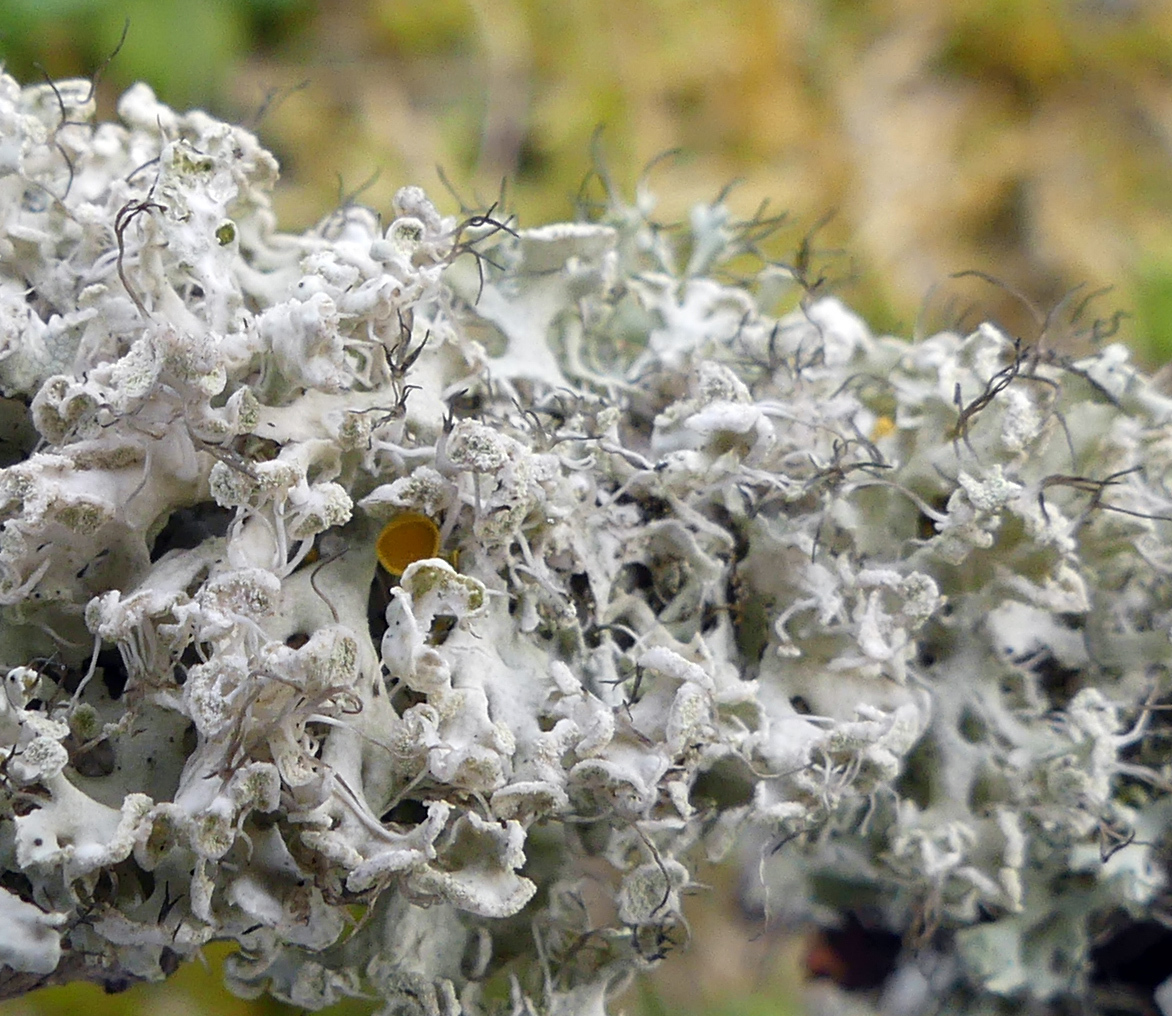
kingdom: Fungi
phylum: Ascomycota
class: Lecanoromycetes
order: Caliciales
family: Physciaceae
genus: Physcia
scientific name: Physcia tenella
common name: Fringed rosette lichen
